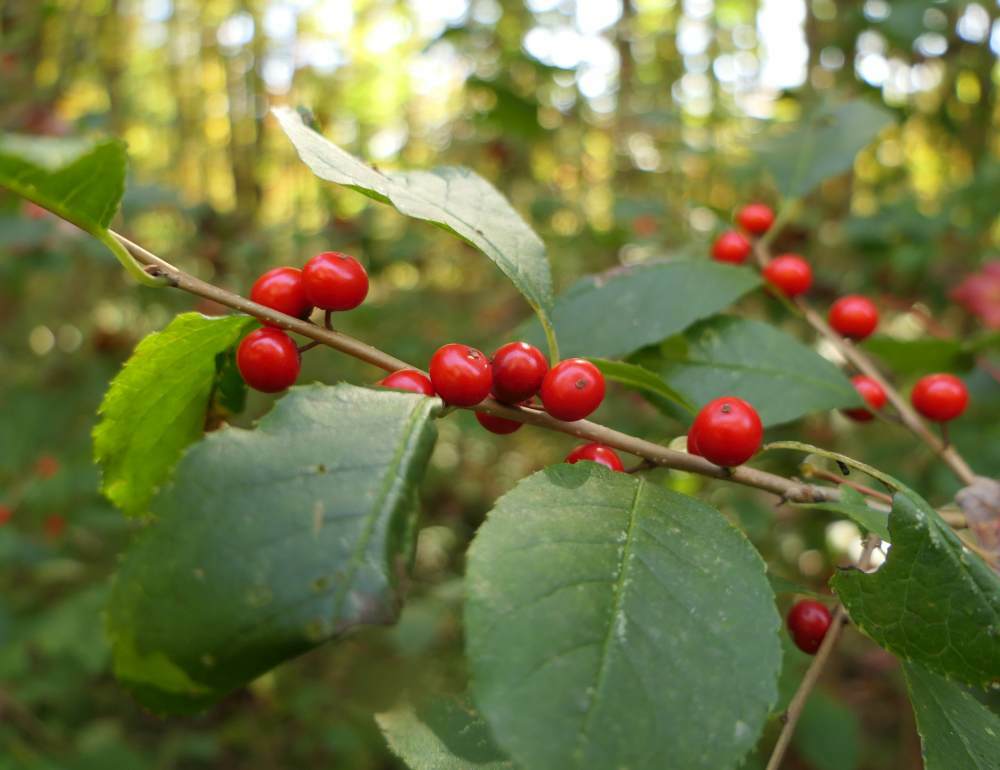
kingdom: Plantae
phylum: Tracheophyta
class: Magnoliopsida
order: Aquifoliales
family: Aquifoliaceae
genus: Ilex
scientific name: Ilex verticillata
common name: Virginia winterberry
